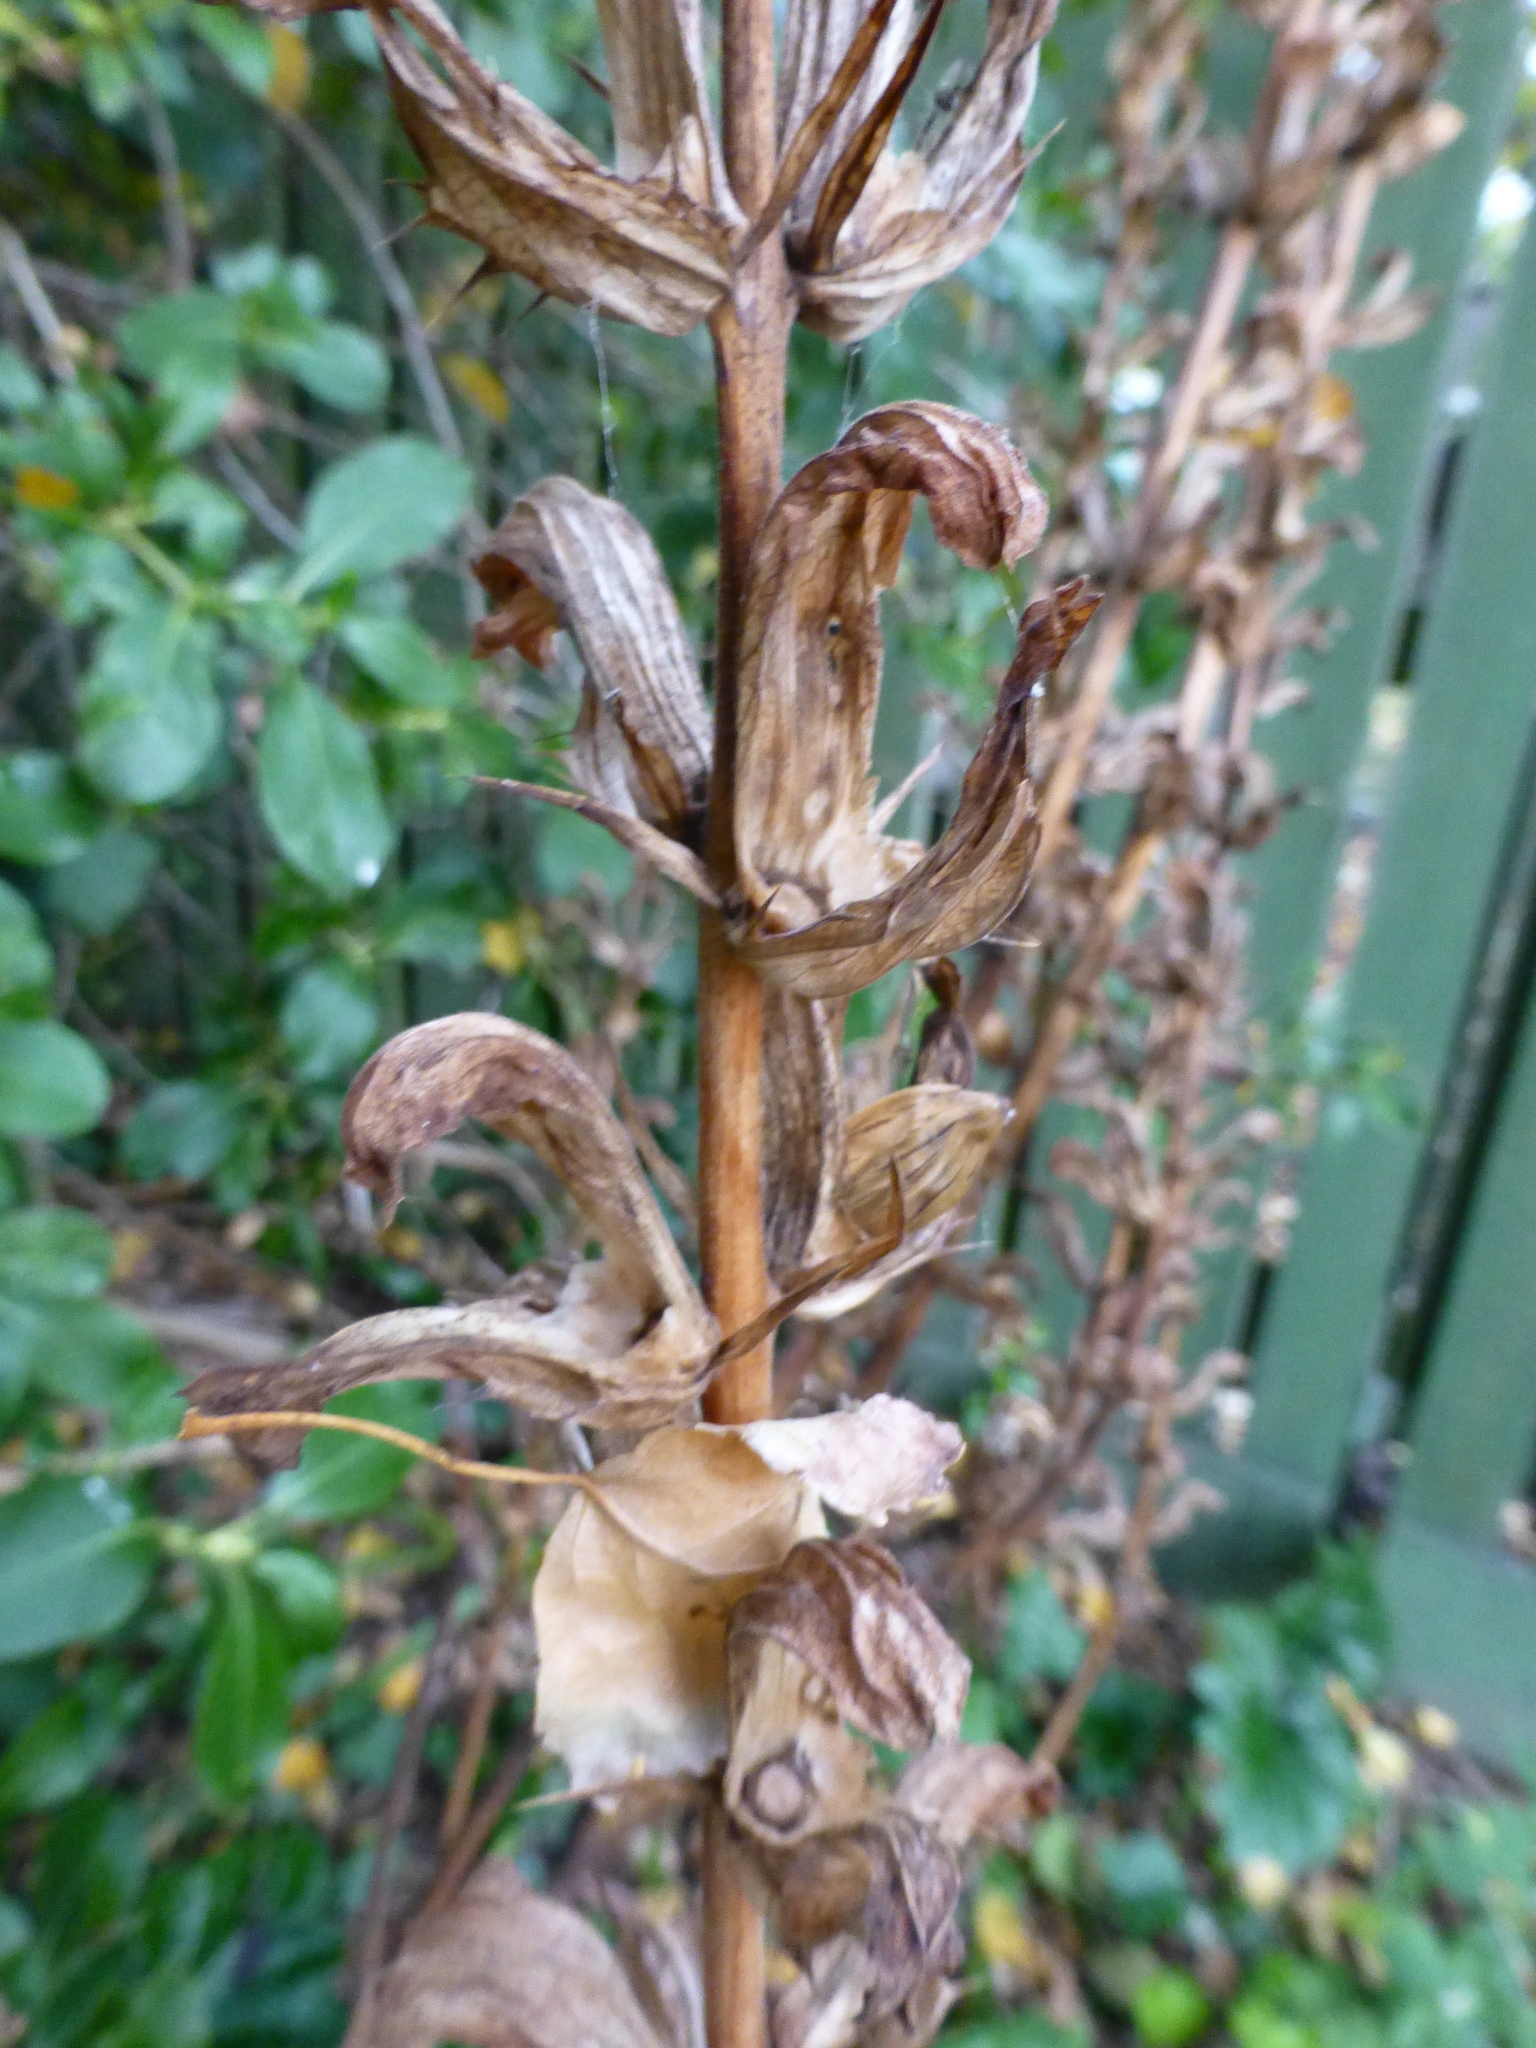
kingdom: Plantae
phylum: Tracheophyta
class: Magnoliopsida
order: Lamiales
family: Acanthaceae
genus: Acanthus
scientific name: Acanthus mollis
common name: Bear's-breech
